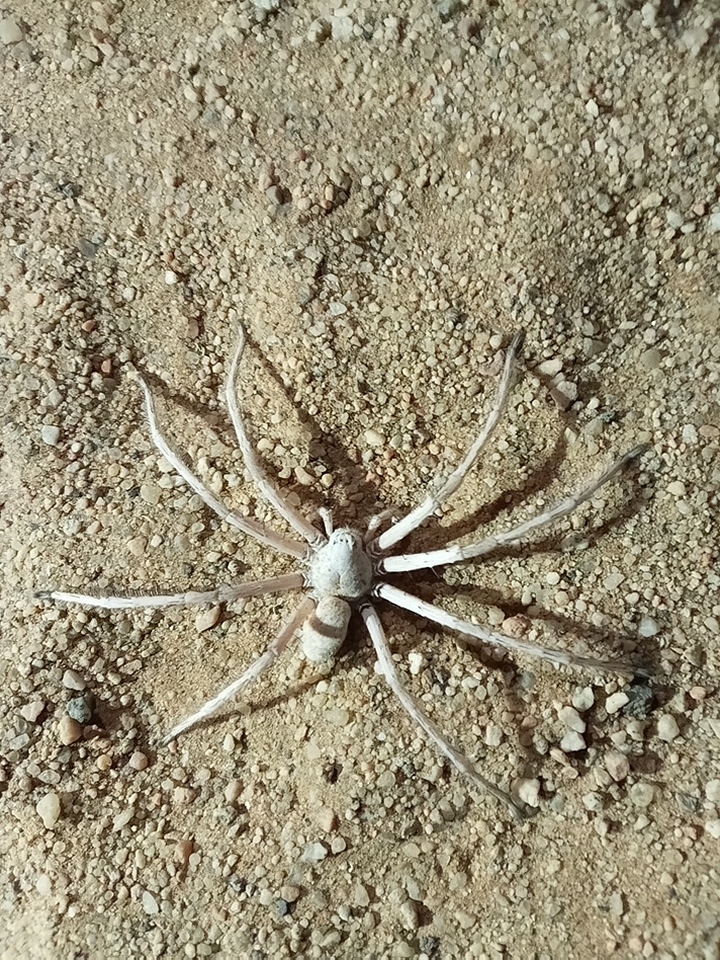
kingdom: Animalia
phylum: Arthropoda
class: Arachnida
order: Araneae
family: Sparassidae
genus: Leucorchestris
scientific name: Leucorchestris arenicola
